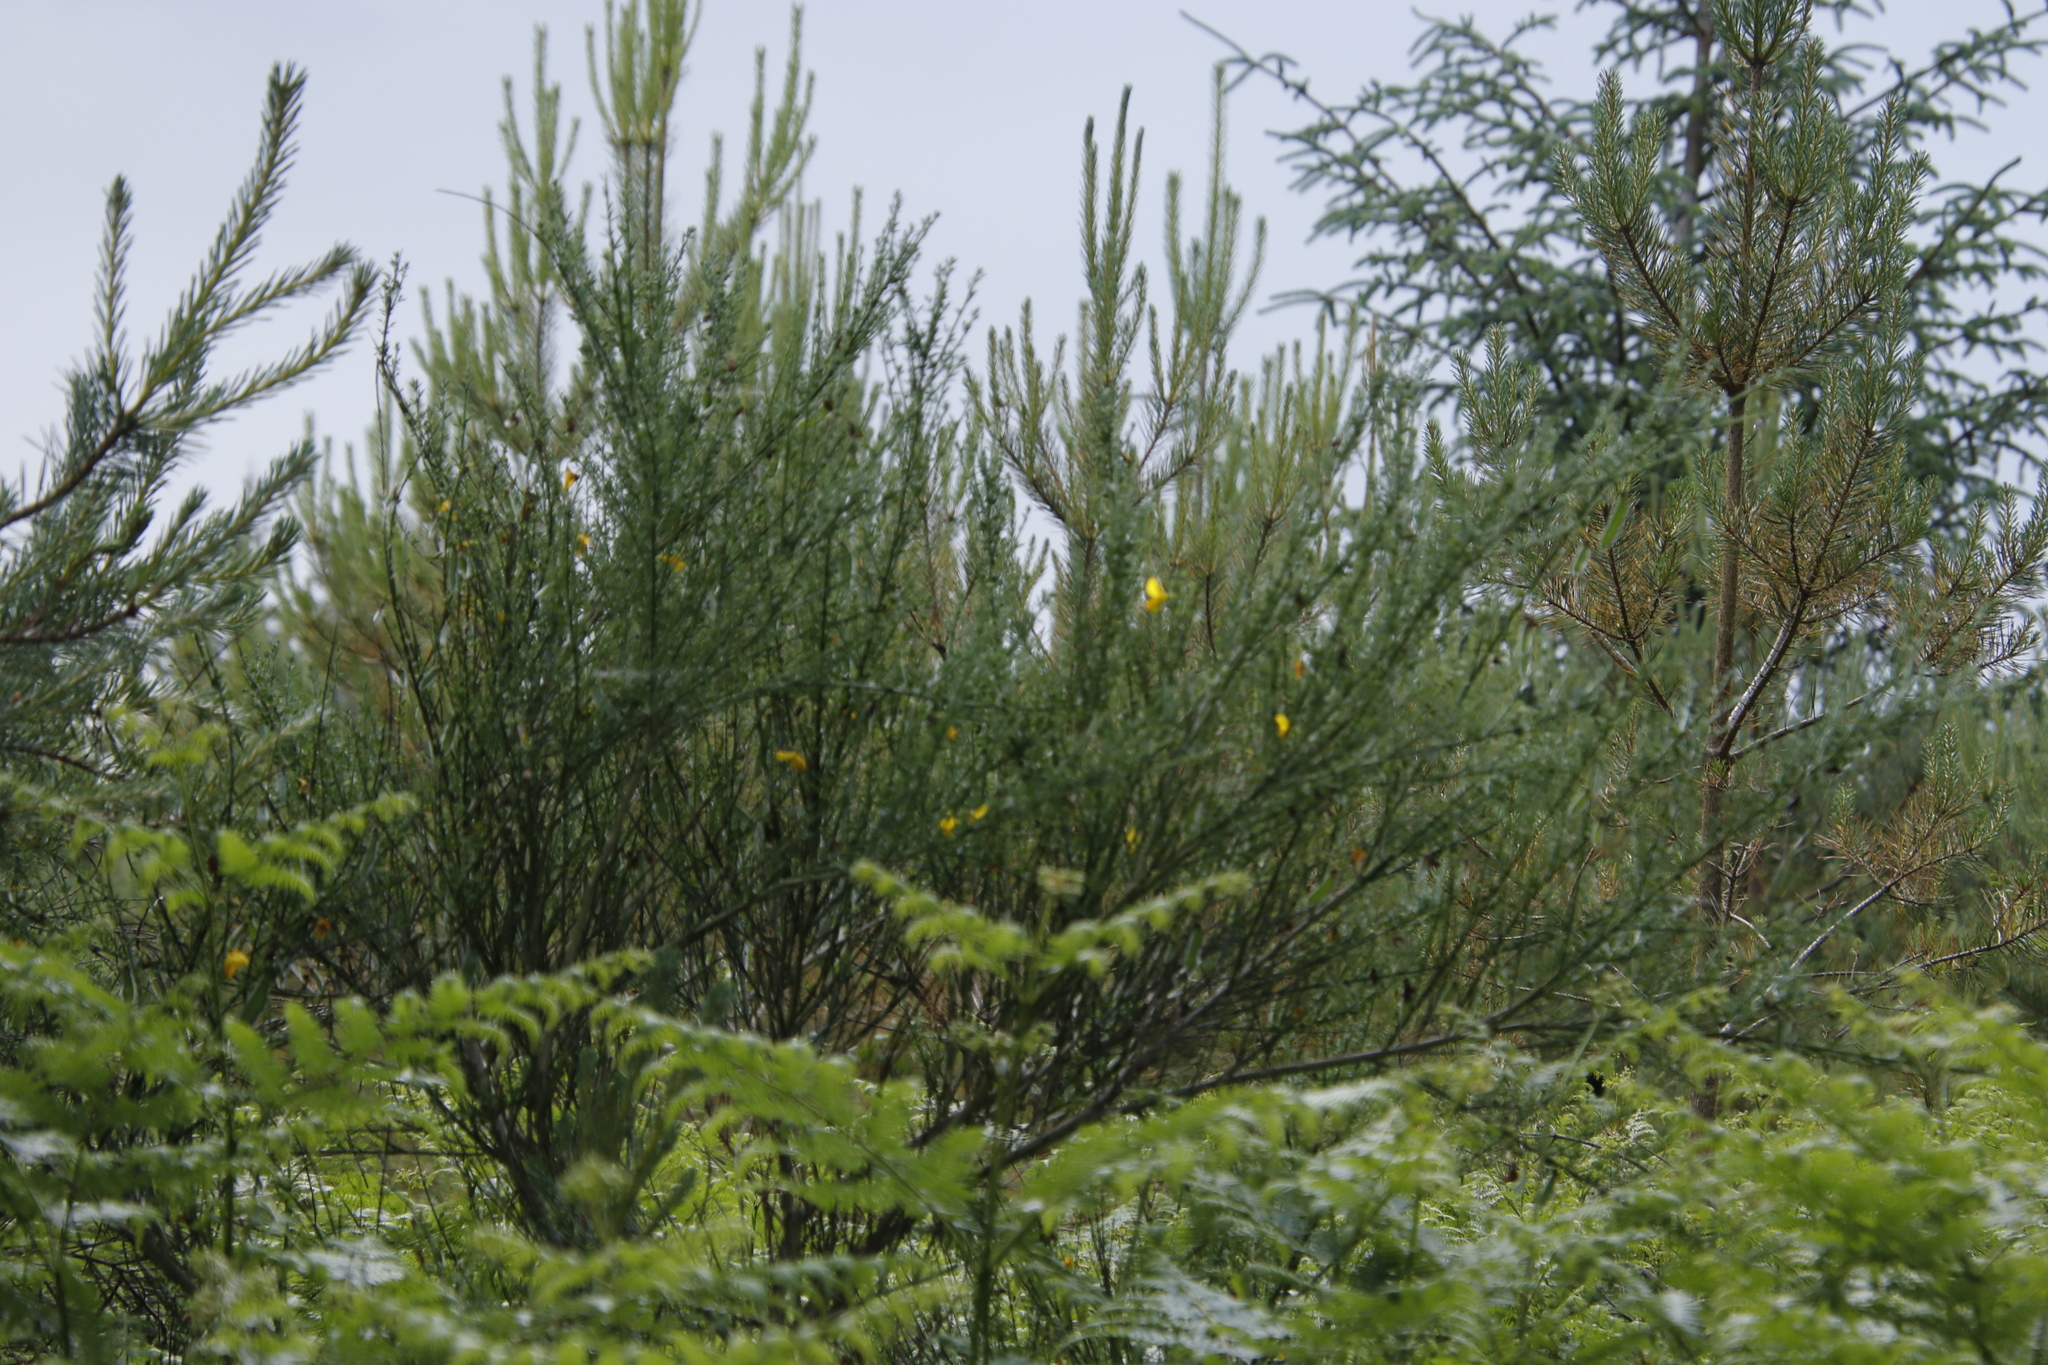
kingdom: Plantae
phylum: Tracheophyta
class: Magnoliopsida
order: Fabales
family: Fabaceae
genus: Cytisus
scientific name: Cytisus scoparius
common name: Scotch broom
